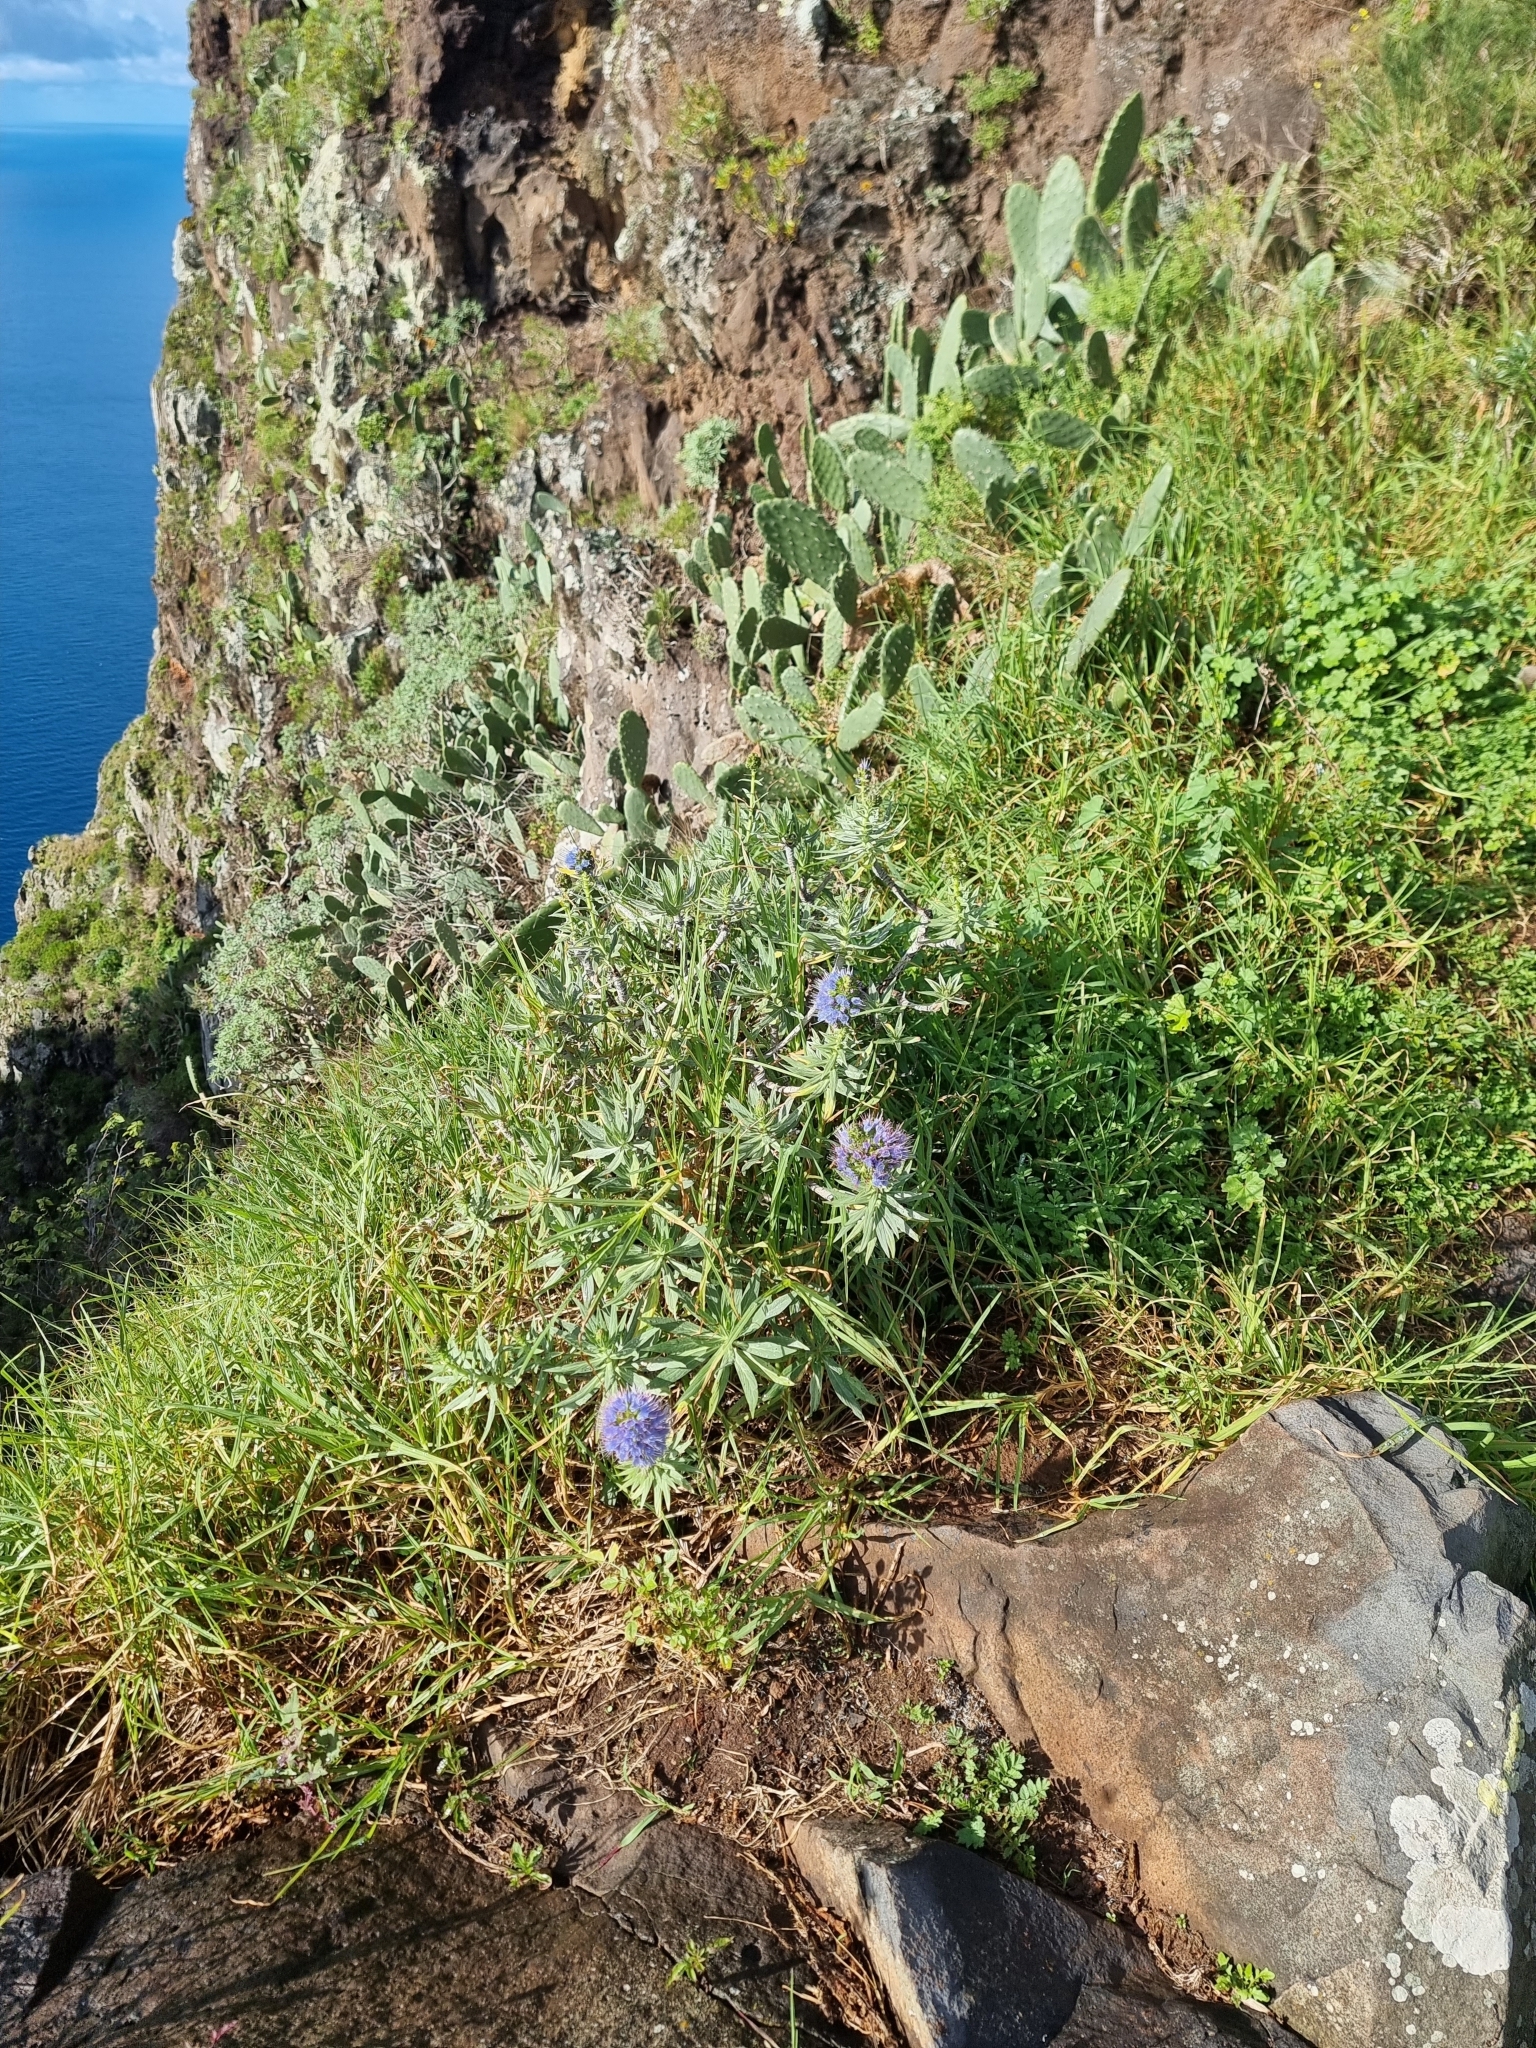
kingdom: Plantae
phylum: Tracheophyta
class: Magnoliopsida
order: Boraginales
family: Boraginaceae
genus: Echium
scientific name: Echium nervosum
